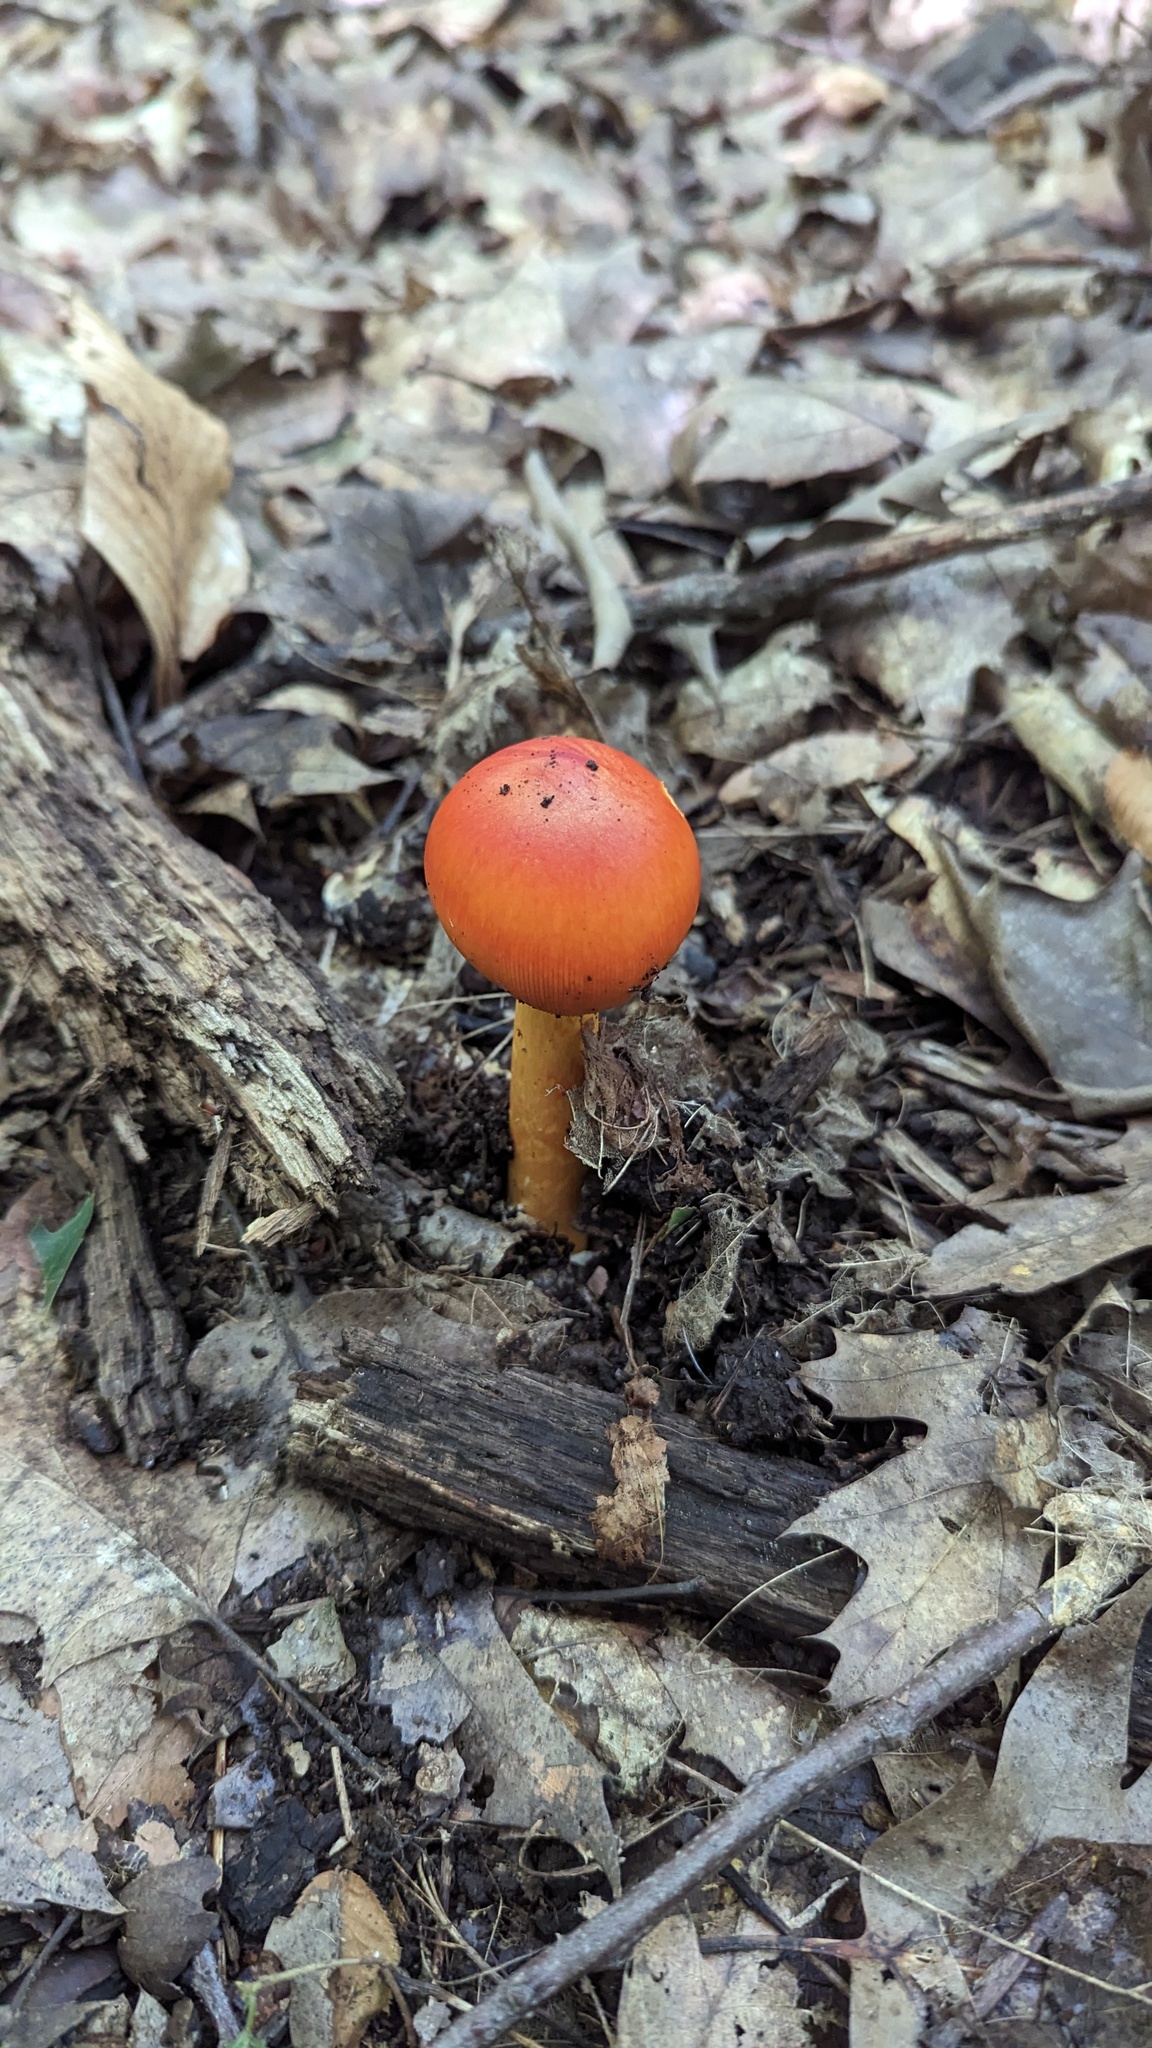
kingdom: Fungi
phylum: Basidiomycota
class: Agaricomycetes
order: Agaricales
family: Amanitaceae
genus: Amanita
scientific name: Amanita jacksonii
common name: Jackson's slender caesar
